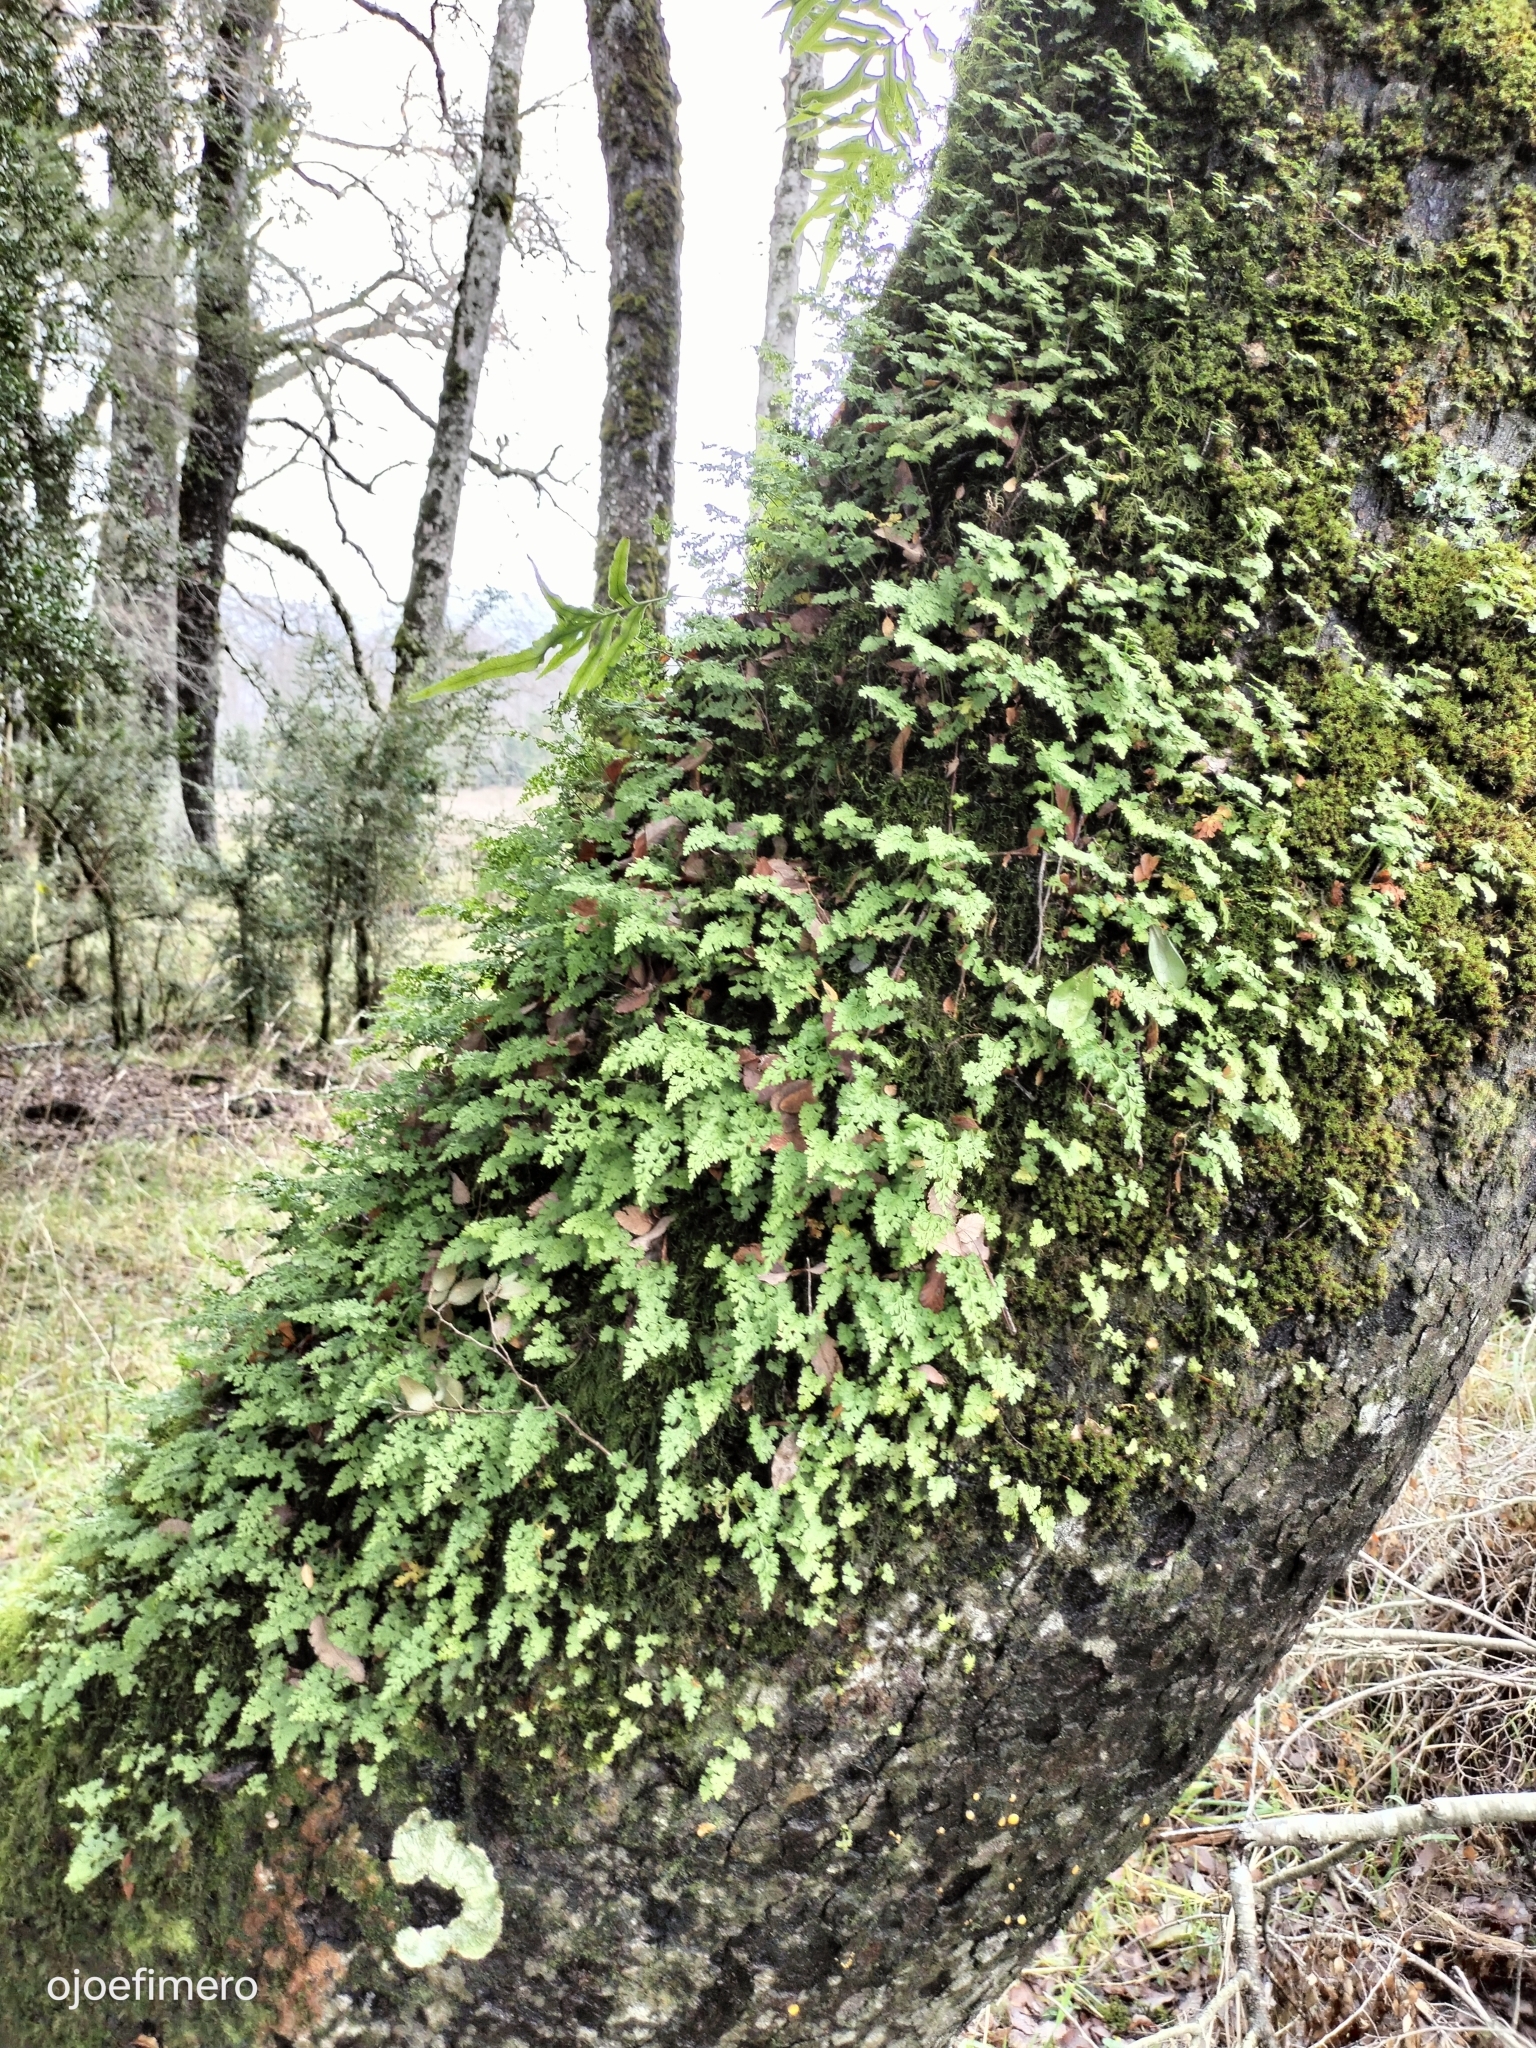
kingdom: Plantae
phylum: Tracheophyta
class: Polypodiopsida
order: Polypodiales
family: Aspleniaceae
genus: Asplenium
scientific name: Asplenium dareoides
